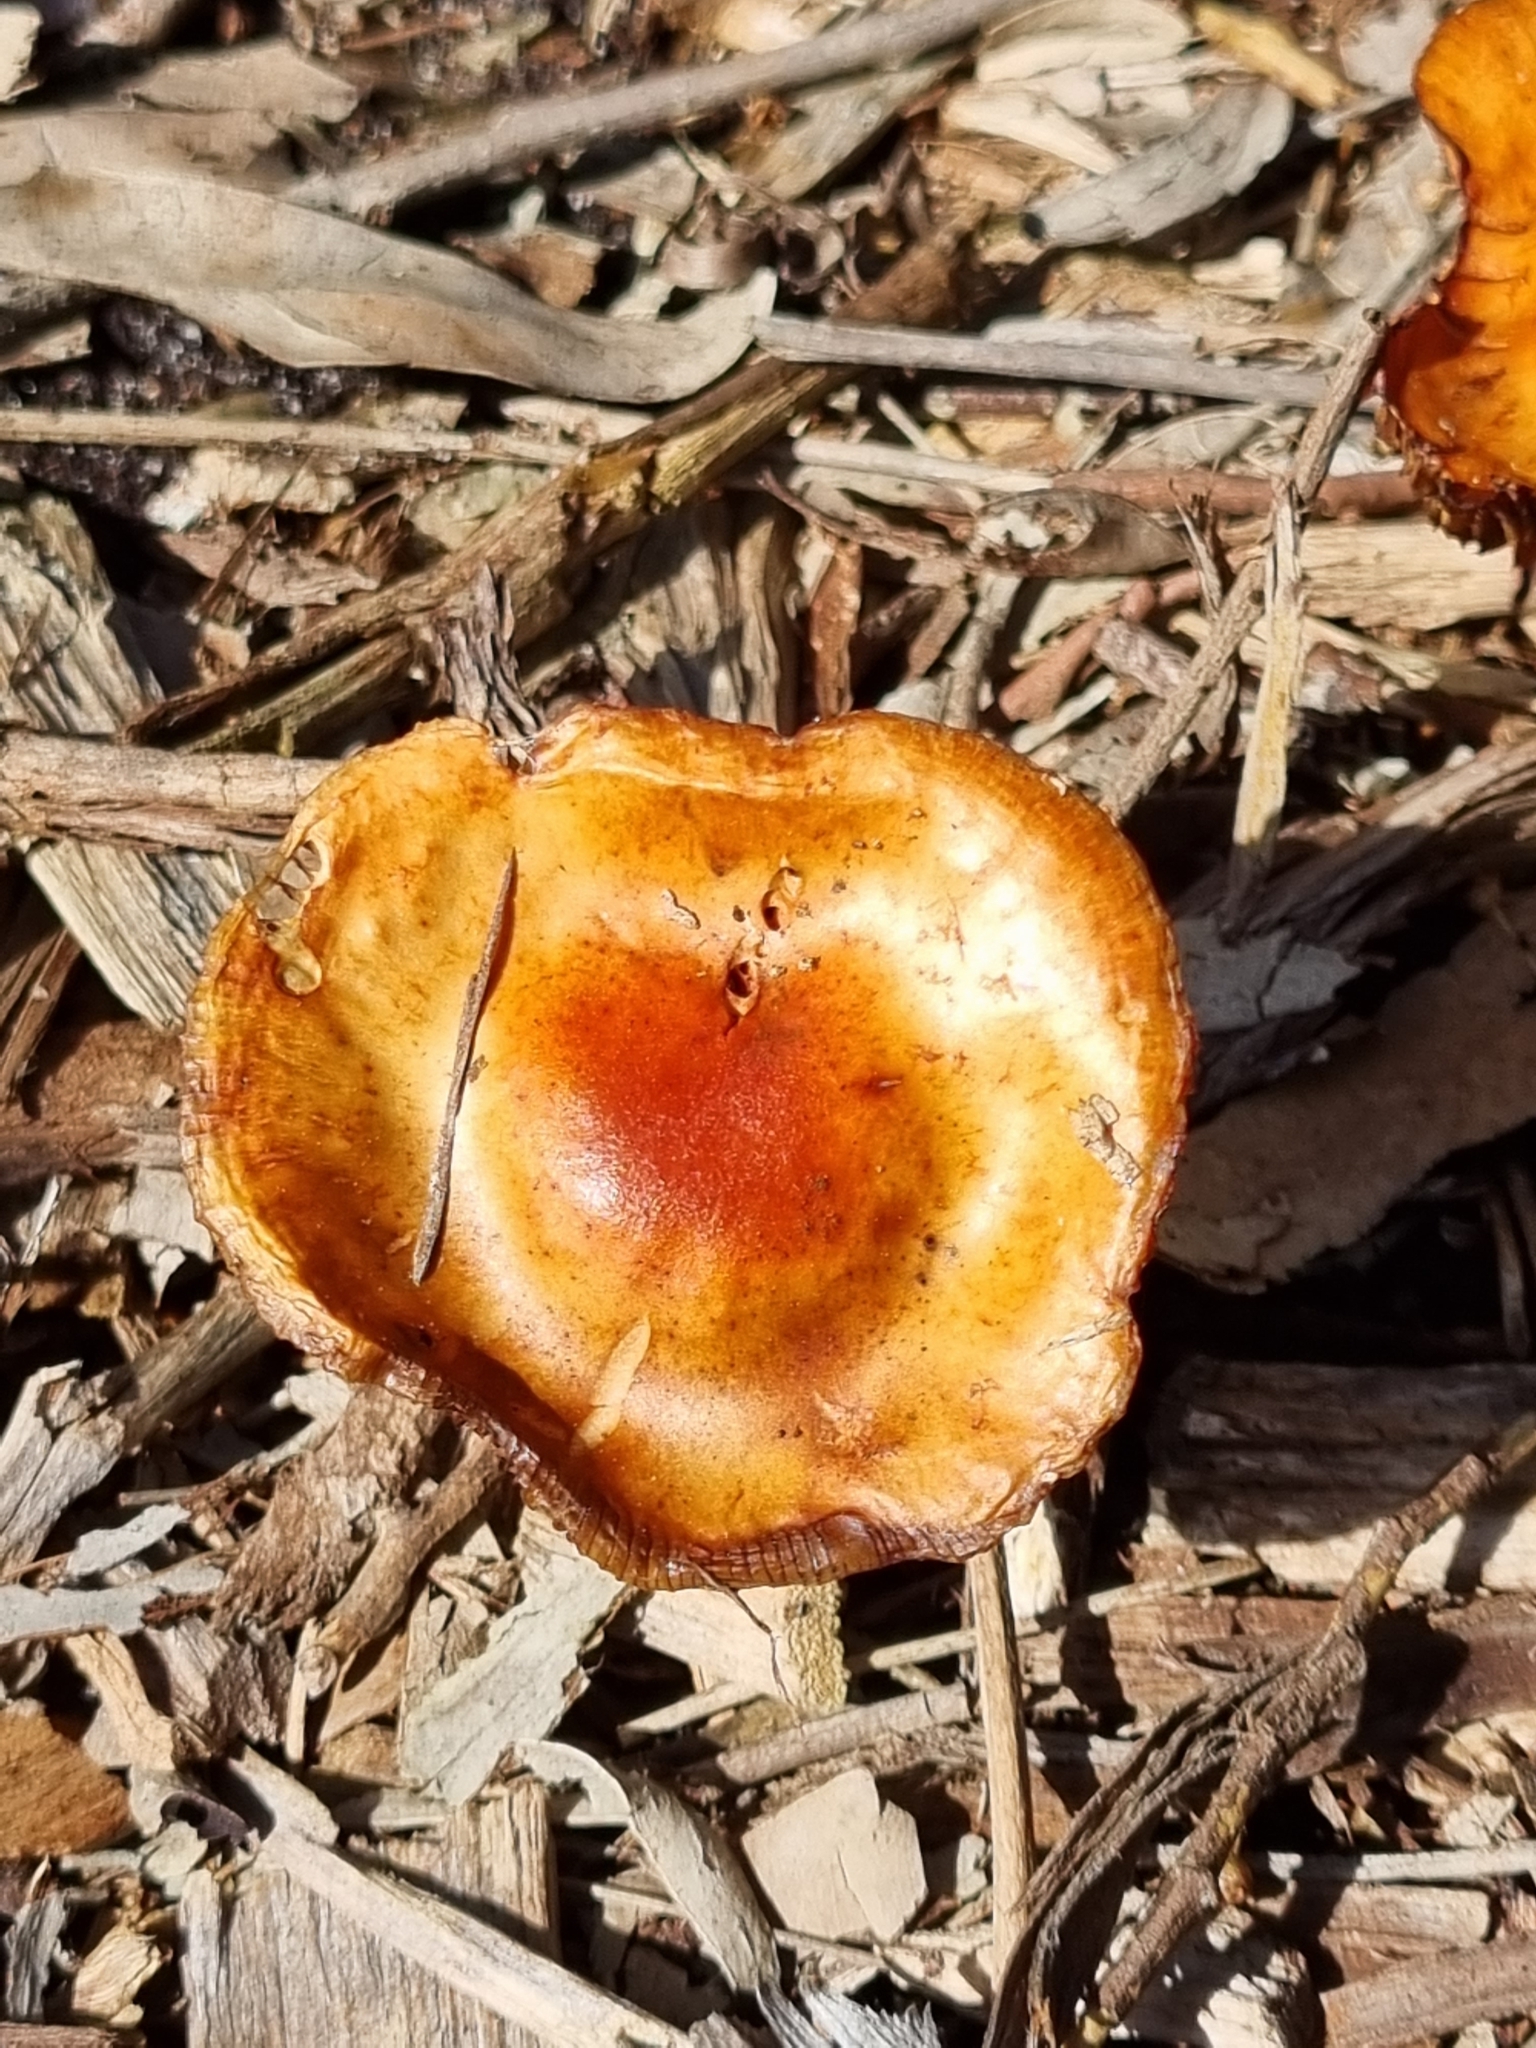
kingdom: Fungi
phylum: Basidiomycota
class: Agaricomycetes
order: Agaricales
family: Strophariaceae
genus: Leratiomyces
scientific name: Leratiomyces ceres
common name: Redlead roundhead
